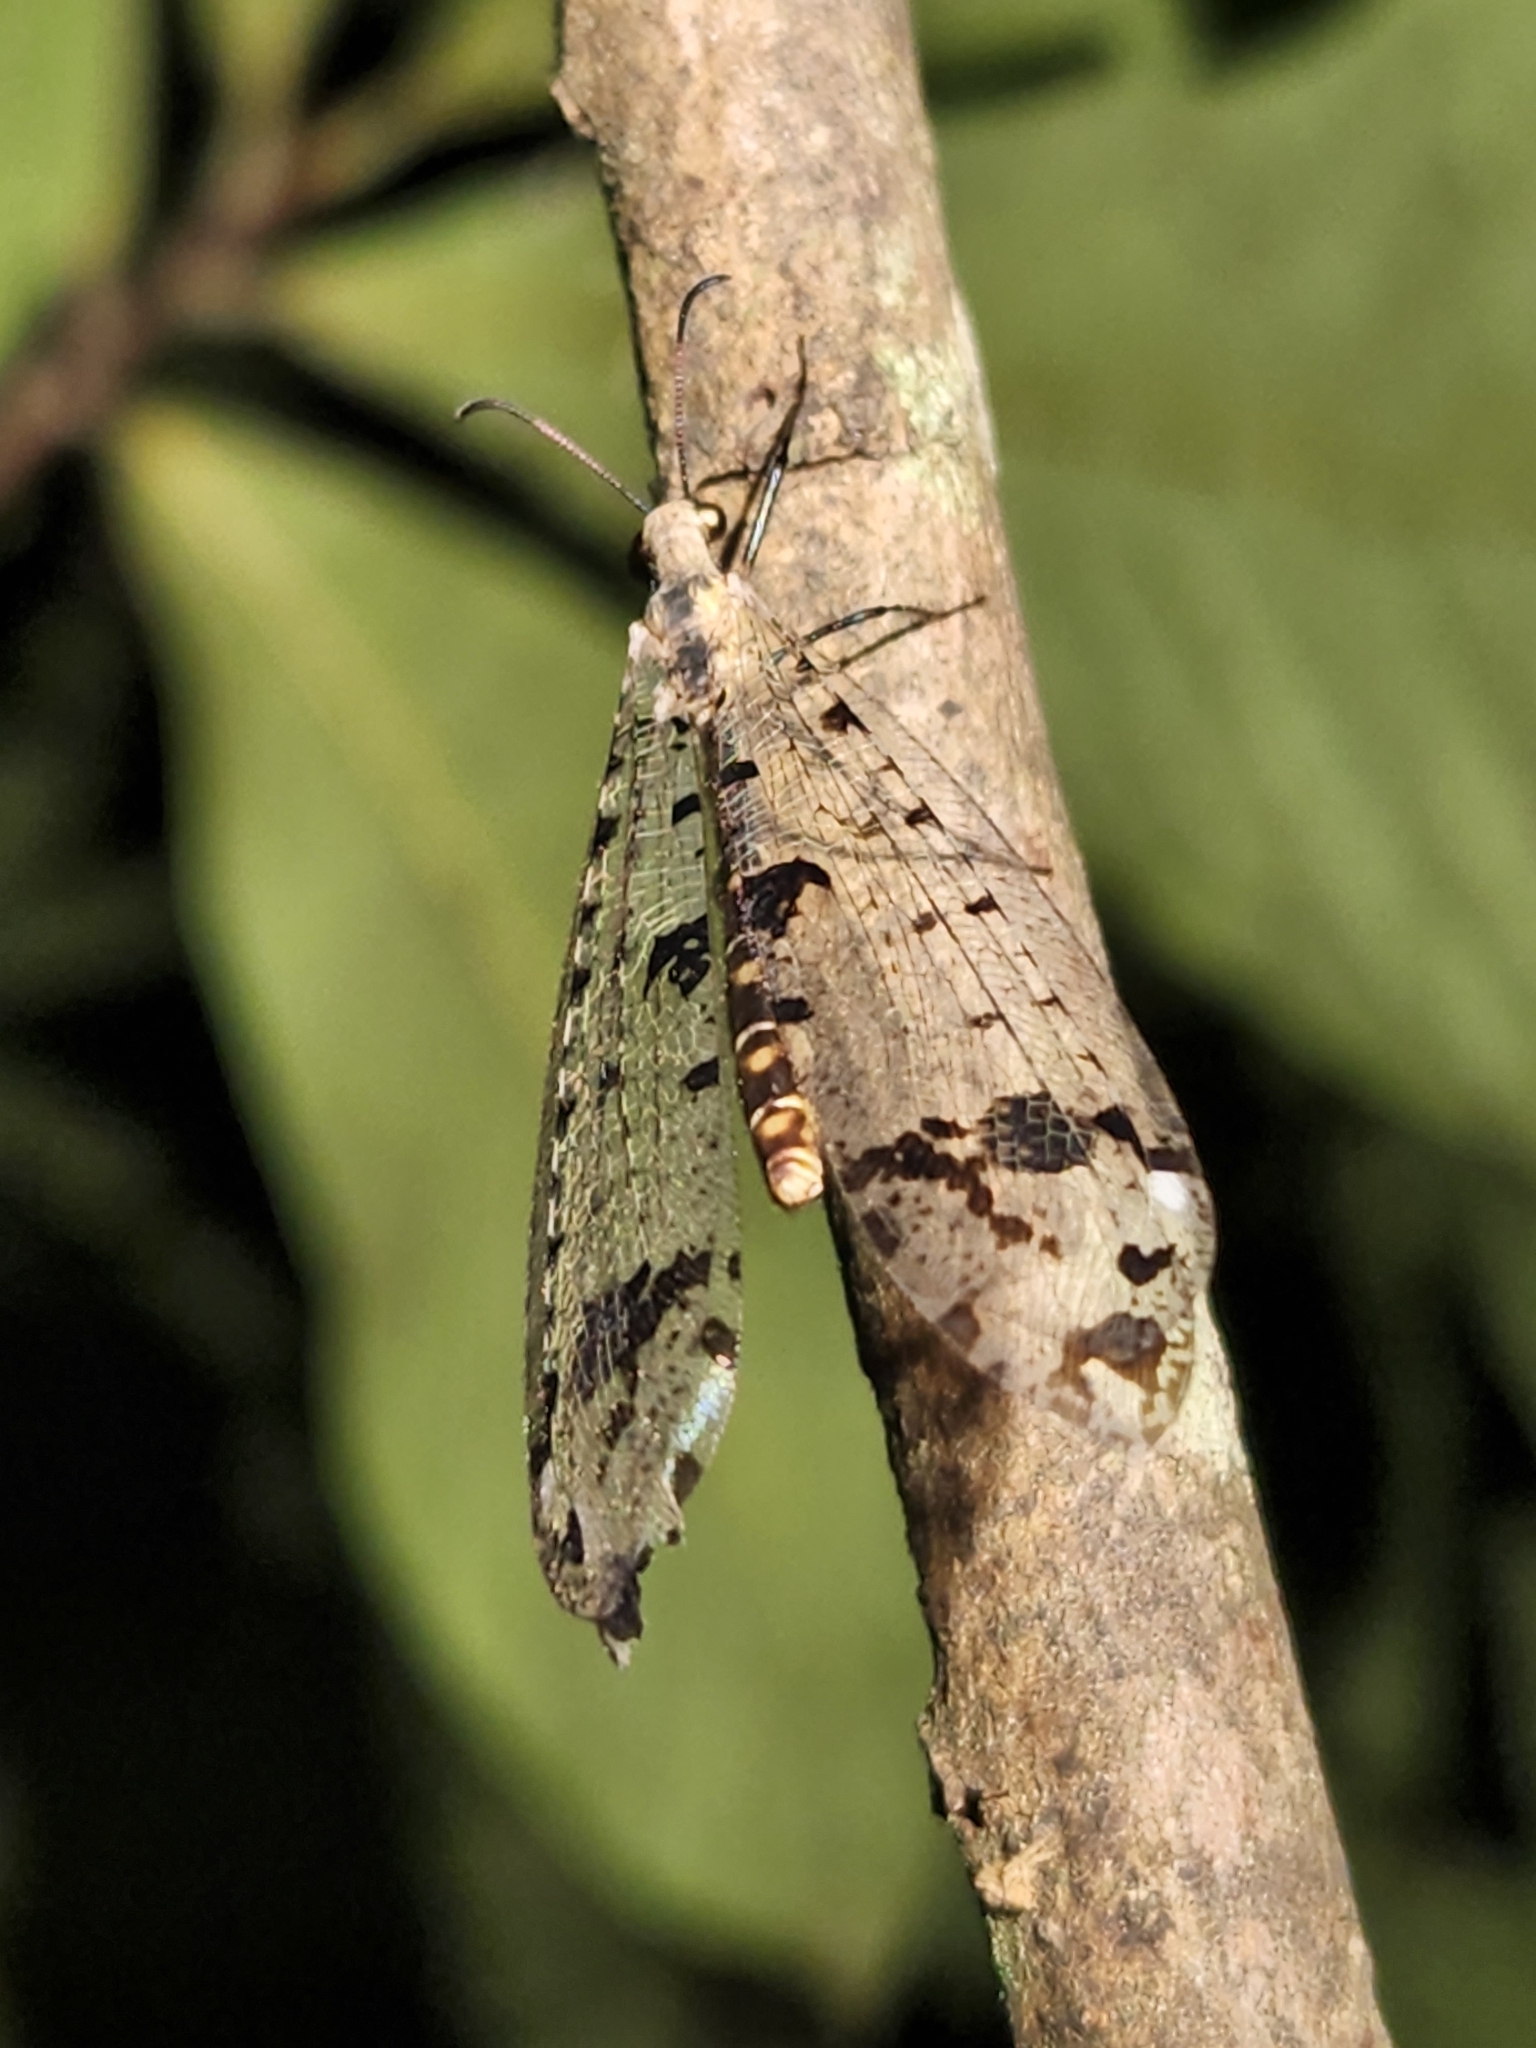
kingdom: Animalia
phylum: Arthropoda
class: Insecta
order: Neuroptera
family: Myrmeleontidae
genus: Dendroleon
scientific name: Dendroleon obsoletus
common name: Eastern spotted-winged antlion
